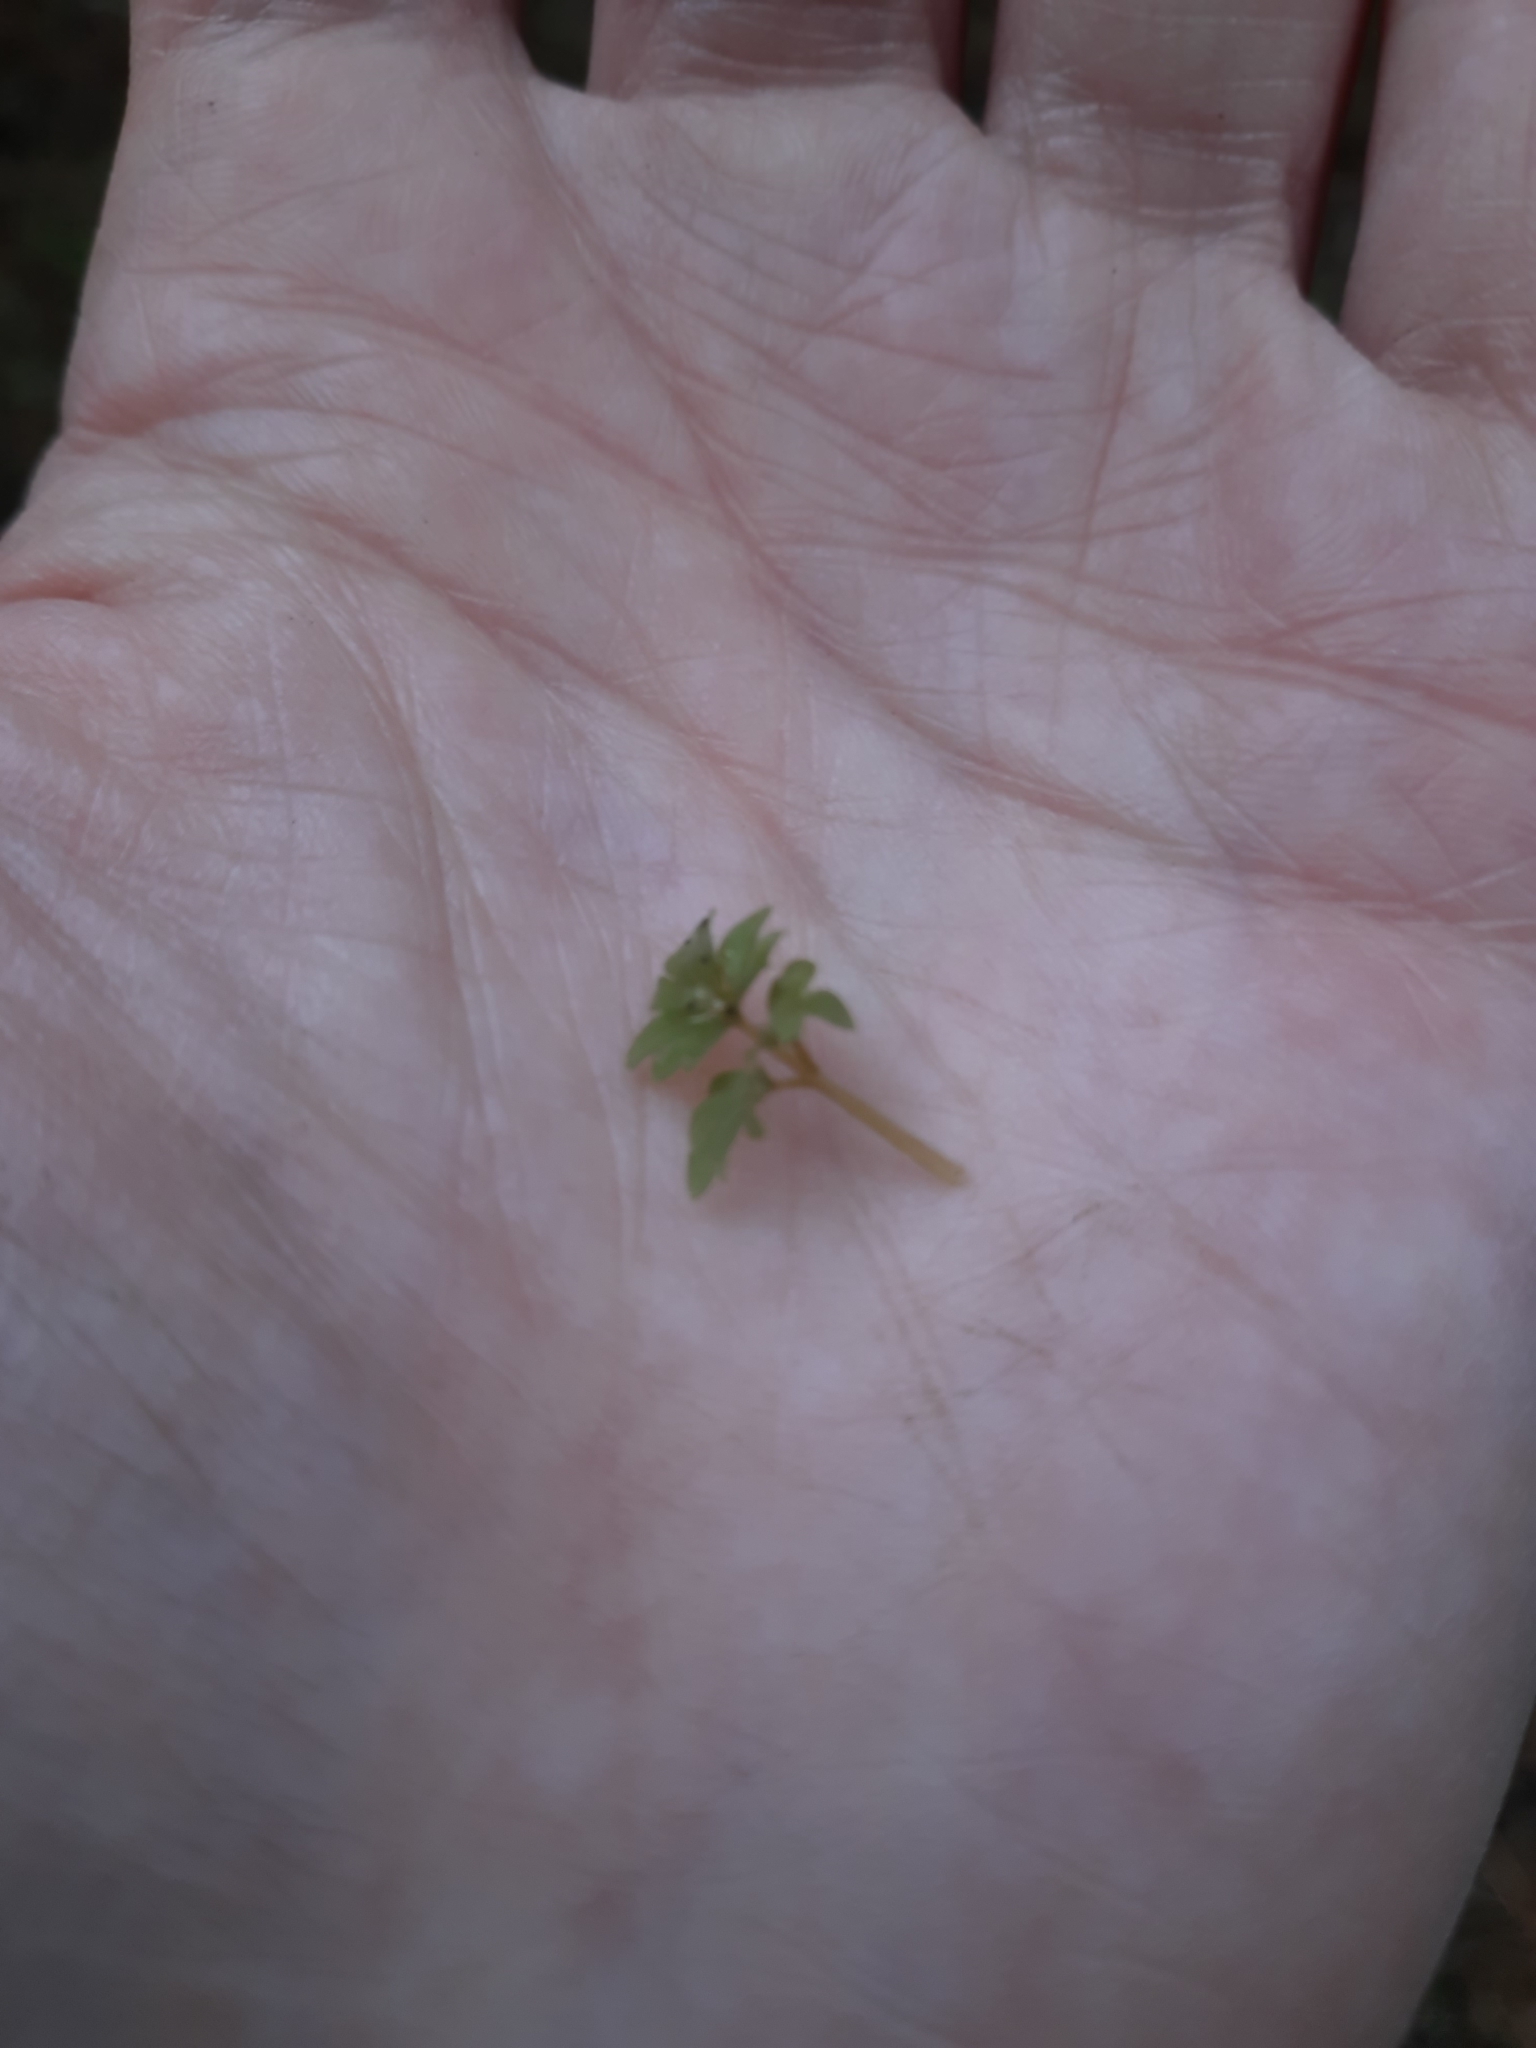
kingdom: Plantae
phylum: Tracheophyta
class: Magnoliopsida
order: Dipsacales
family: Viburnaceae
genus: Adoxa
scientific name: Adoxa moschatellina
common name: Moschatel
